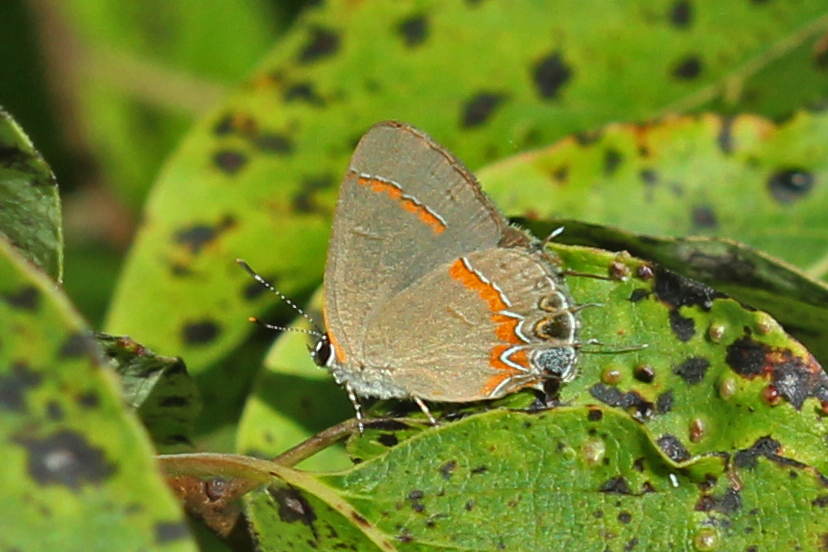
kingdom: Animalia
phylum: Arthropoda
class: Insecta
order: Lepidoptera
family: Lycaenidae
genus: Calycopis
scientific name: Calycopis cecrops
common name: Red-banded hairstreak
